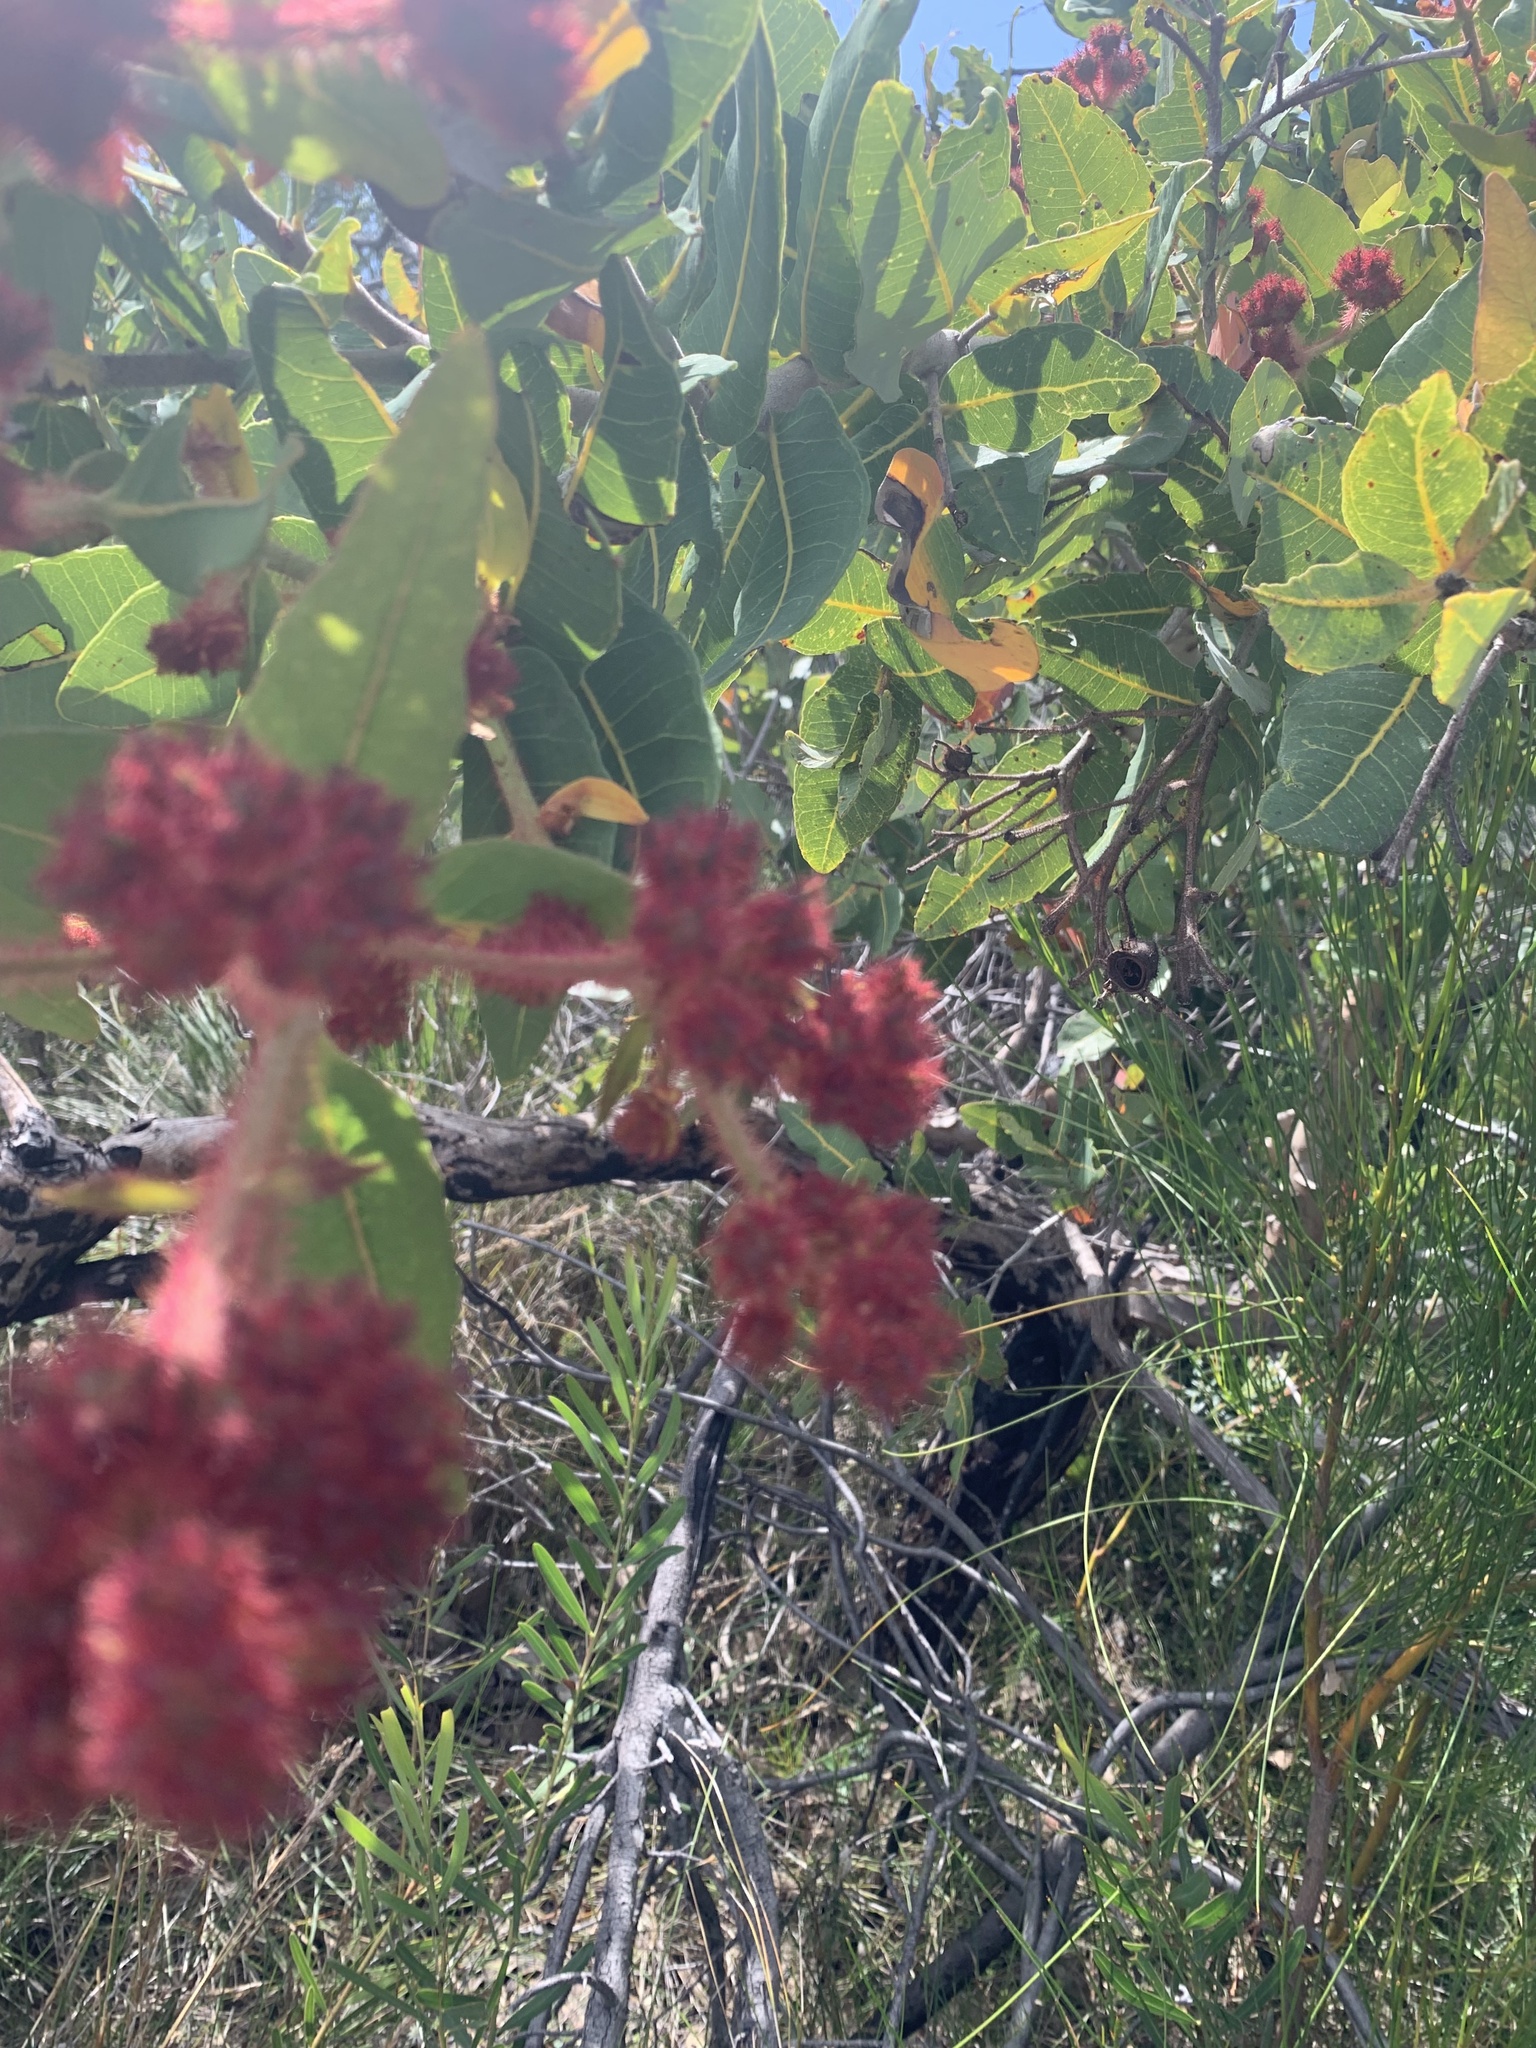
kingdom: Plantae
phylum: Tracheophyta
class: Magnoliopsida
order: Myrtales
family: Myrtaceae
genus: Angophora
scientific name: Angophora hispida
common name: Dwarf-apple
